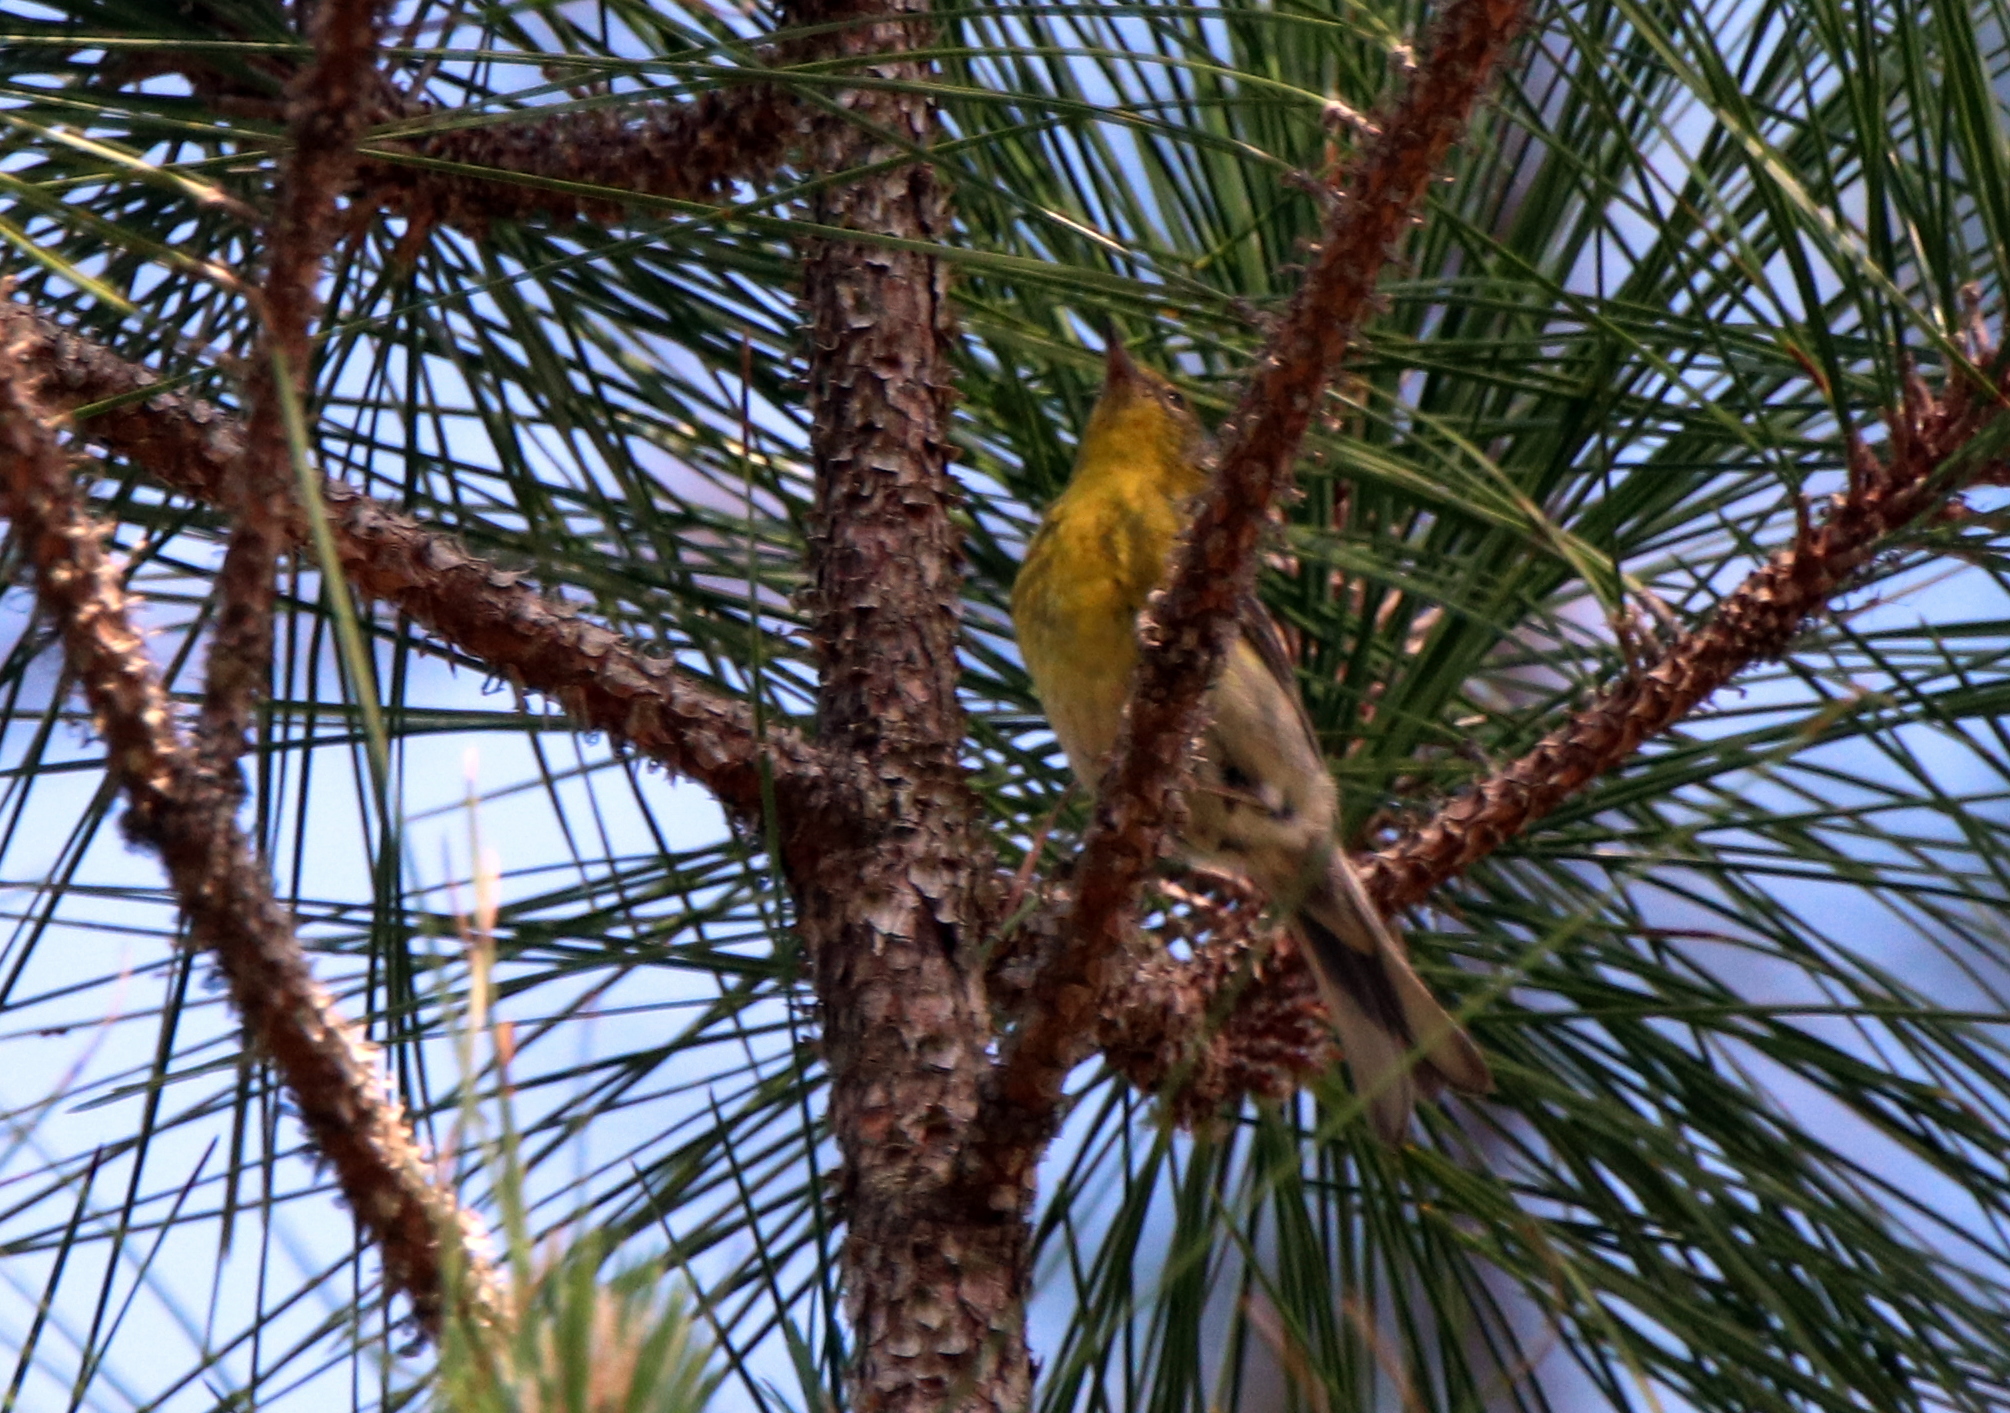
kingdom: Animalia
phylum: Chordata
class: Aves
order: Passeriformes
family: Parulidae
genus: Setophaga
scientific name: Setophaga pinus
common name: Pine warbler
